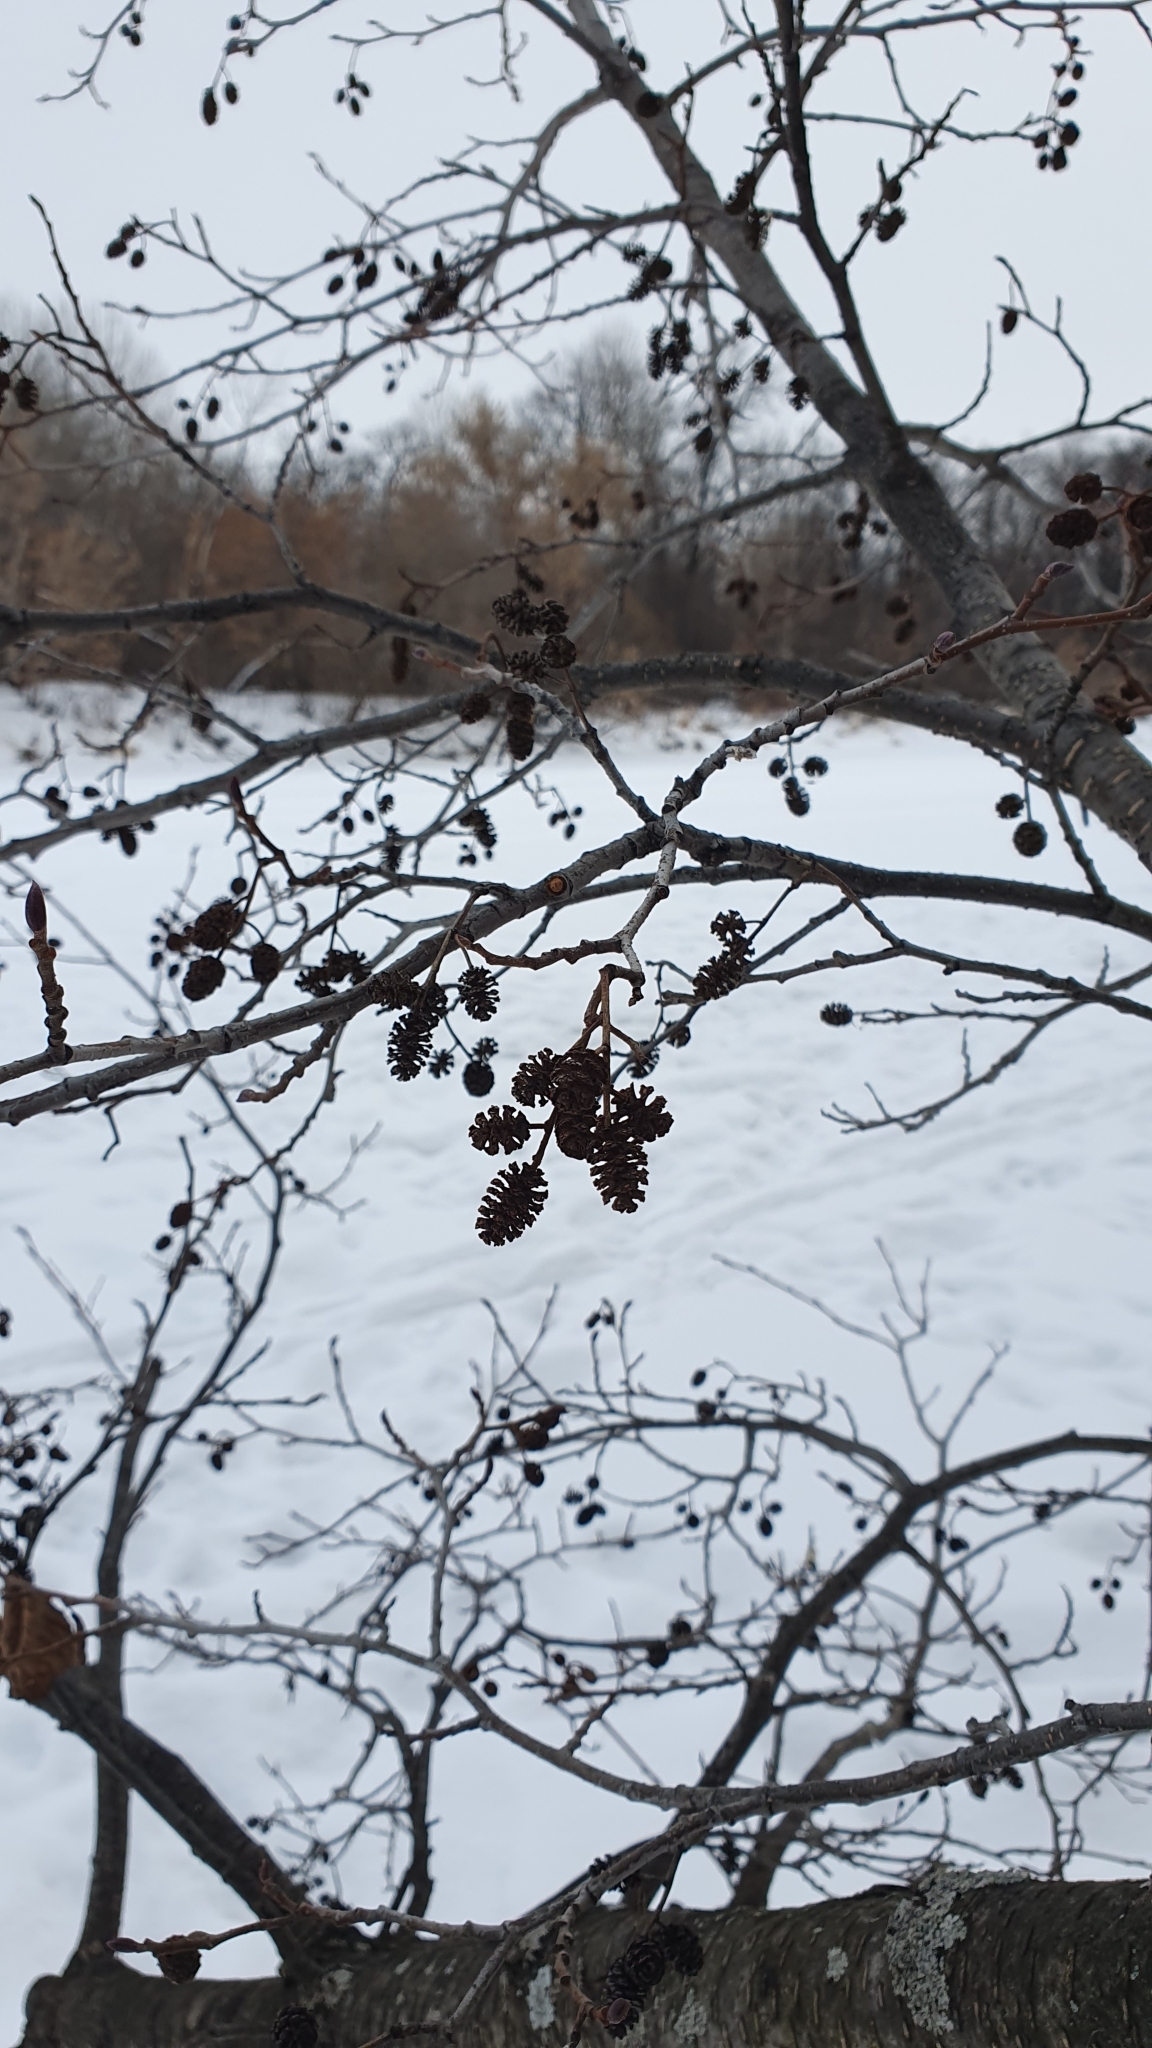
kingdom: Plantae
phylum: Tracheophyta
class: Magnoliopsida
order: Fagales
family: Betulaceae
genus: Alnus
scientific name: Alnus glutinosa
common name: Black alder
